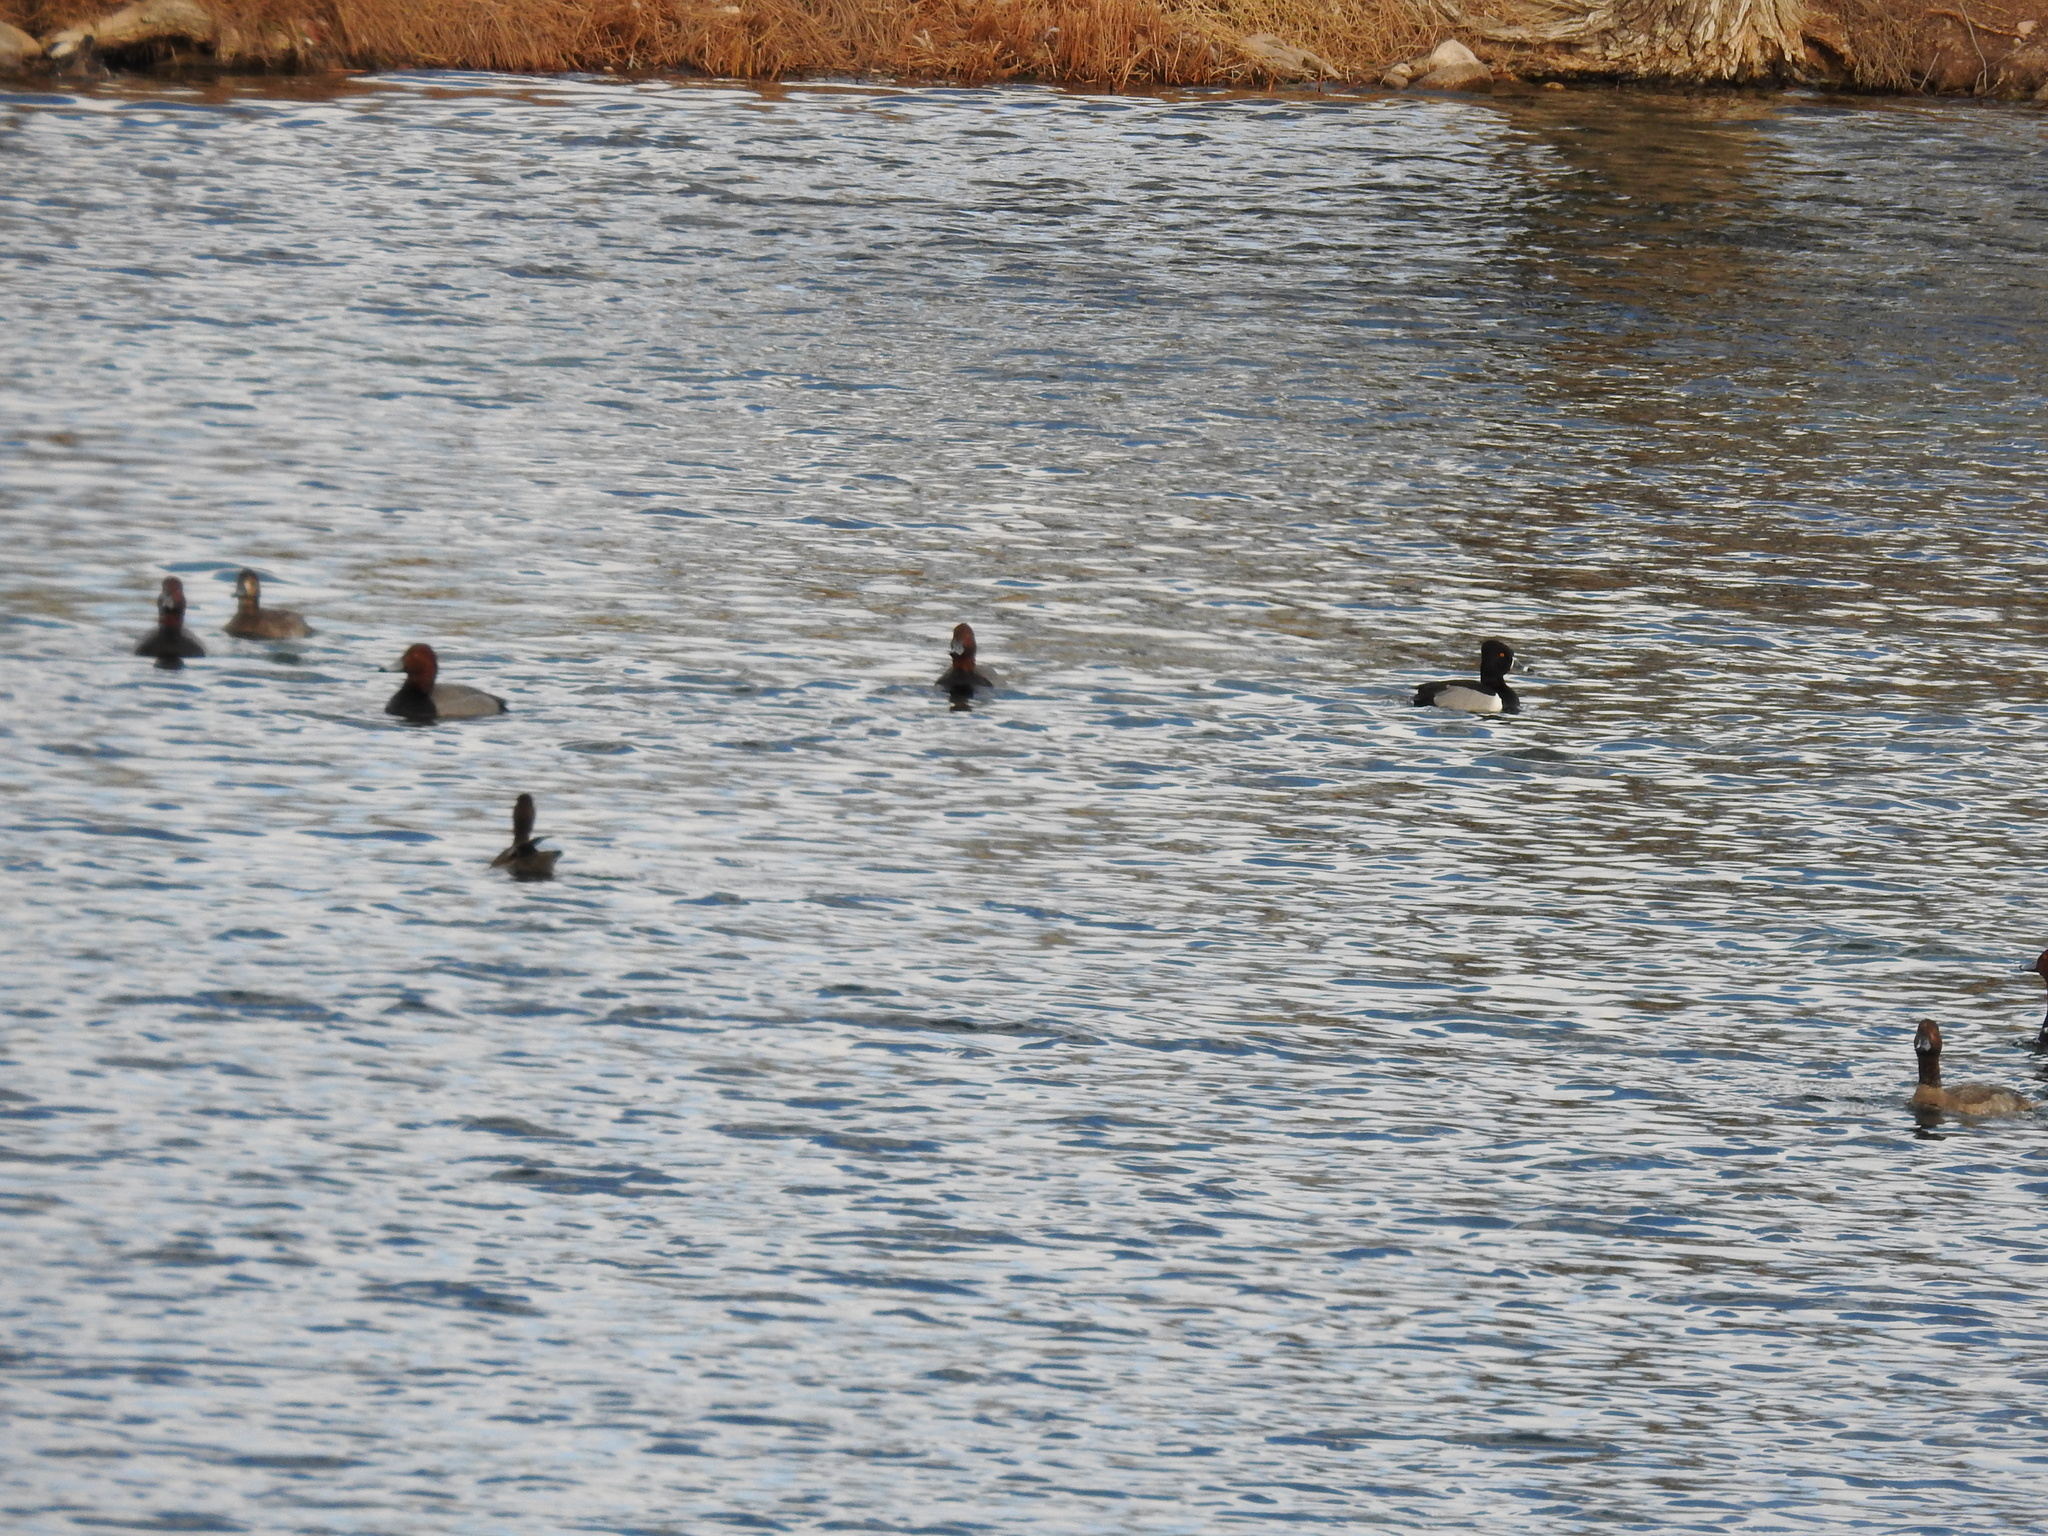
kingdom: Animalia
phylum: Chordata
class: Aves
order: Anseriformes
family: Anatidae
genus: Aythya
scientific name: Aythya americana
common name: Redhead
